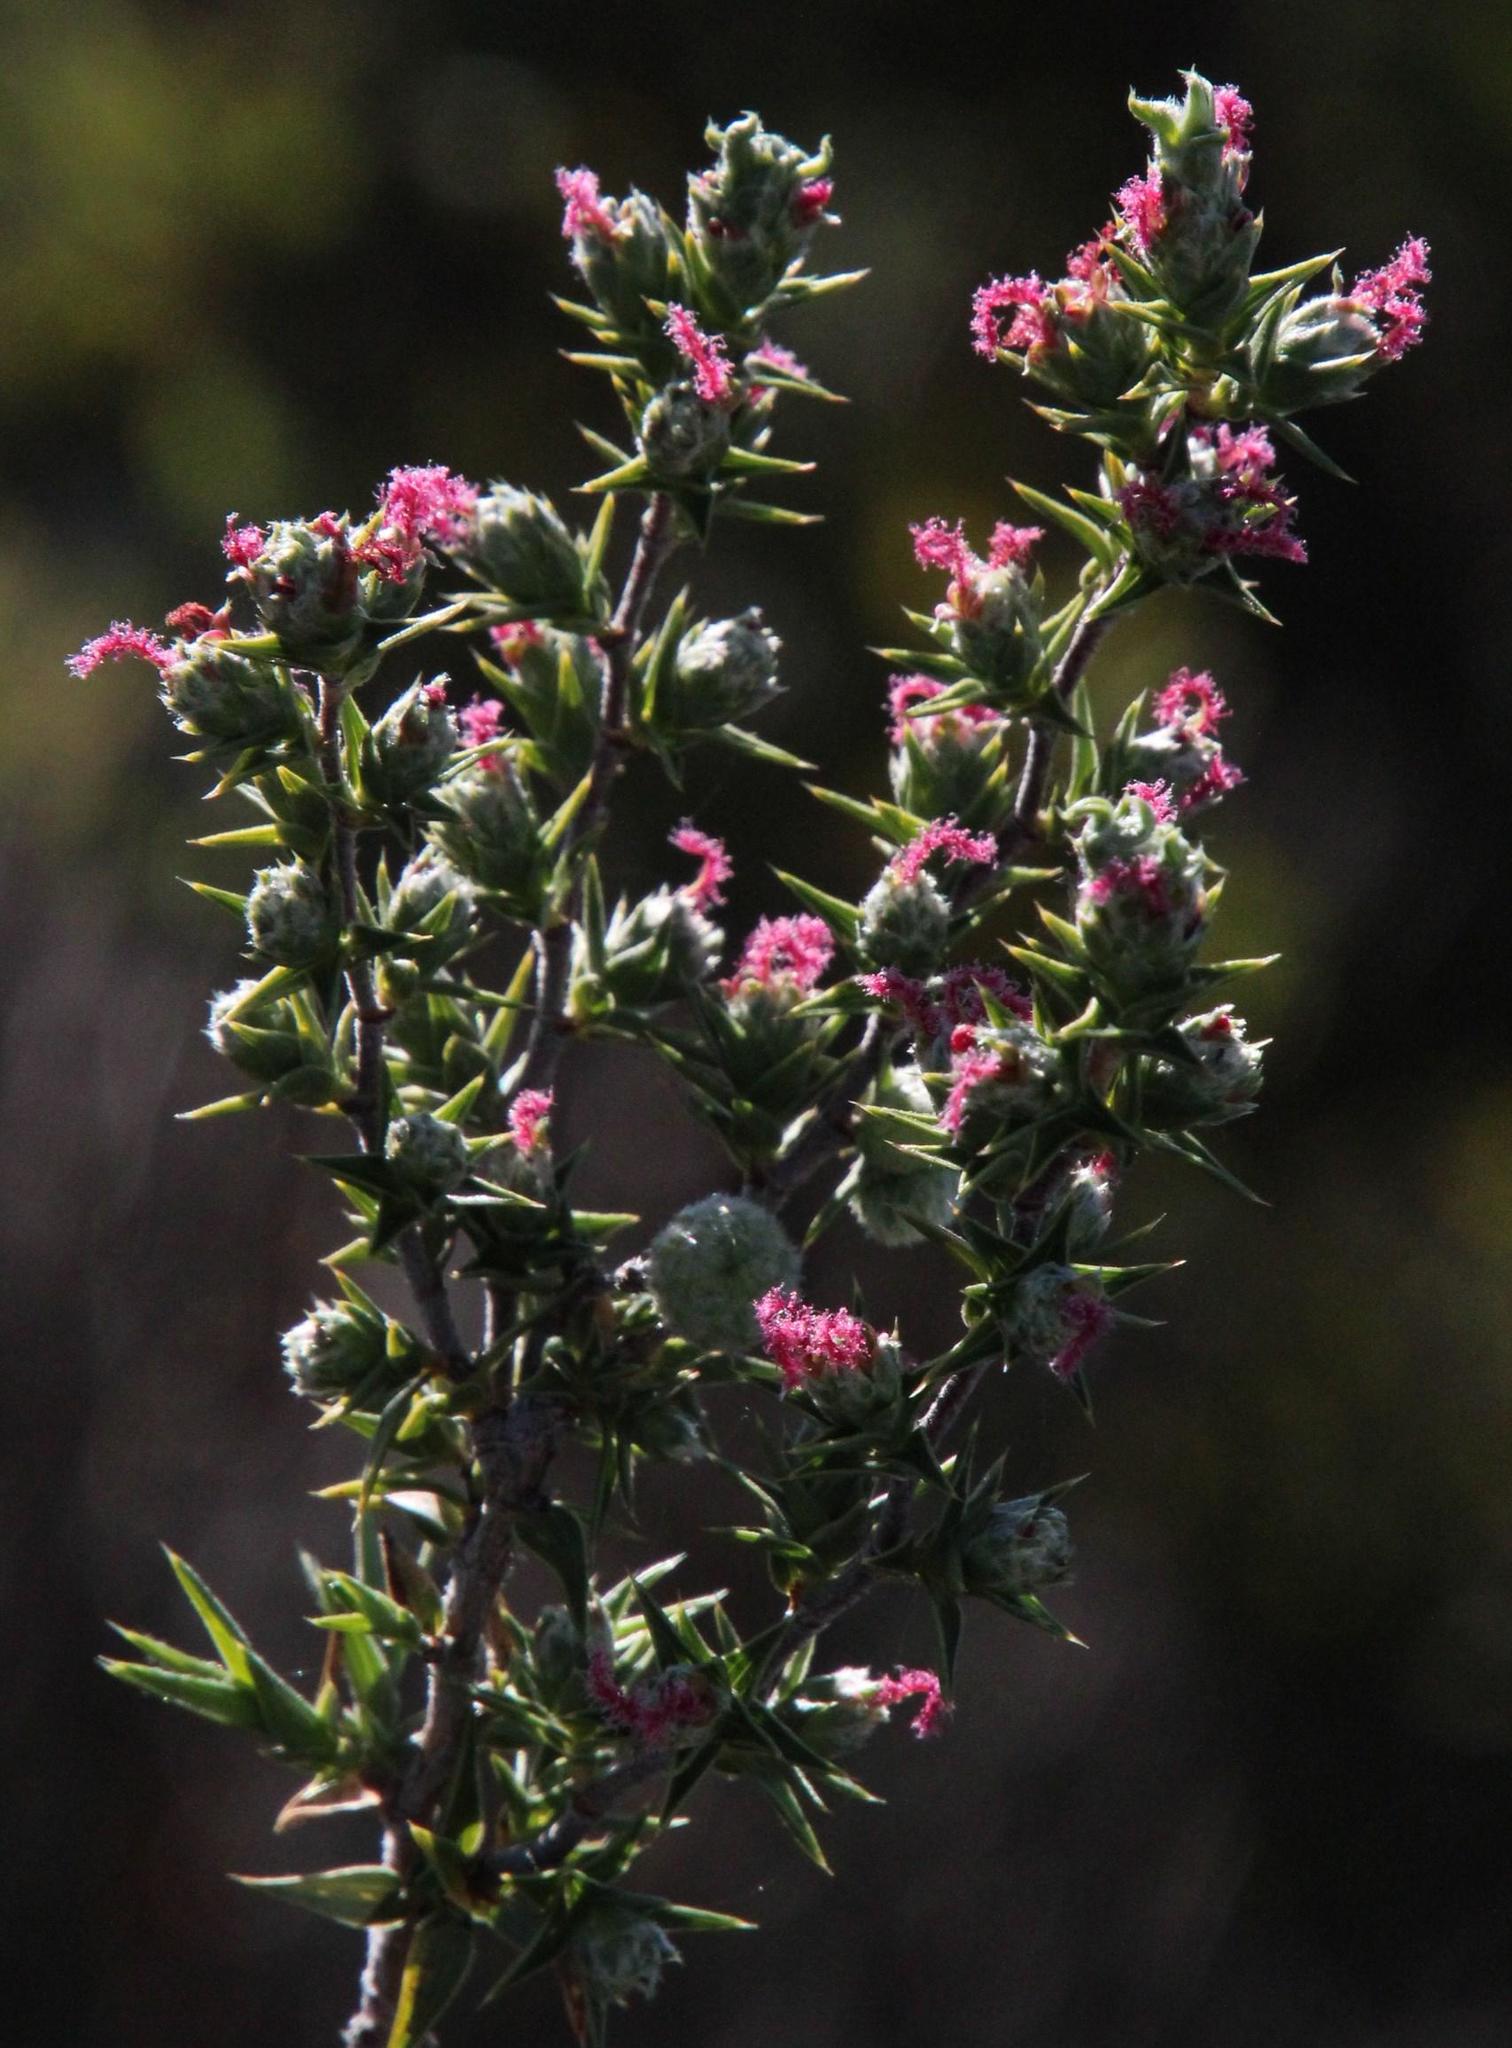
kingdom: Plantae
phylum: Tracheophyta
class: Magnoliopsida
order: Rosales
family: Rosaceae
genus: Cliffortia
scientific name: Cliffortia ruscifolia
